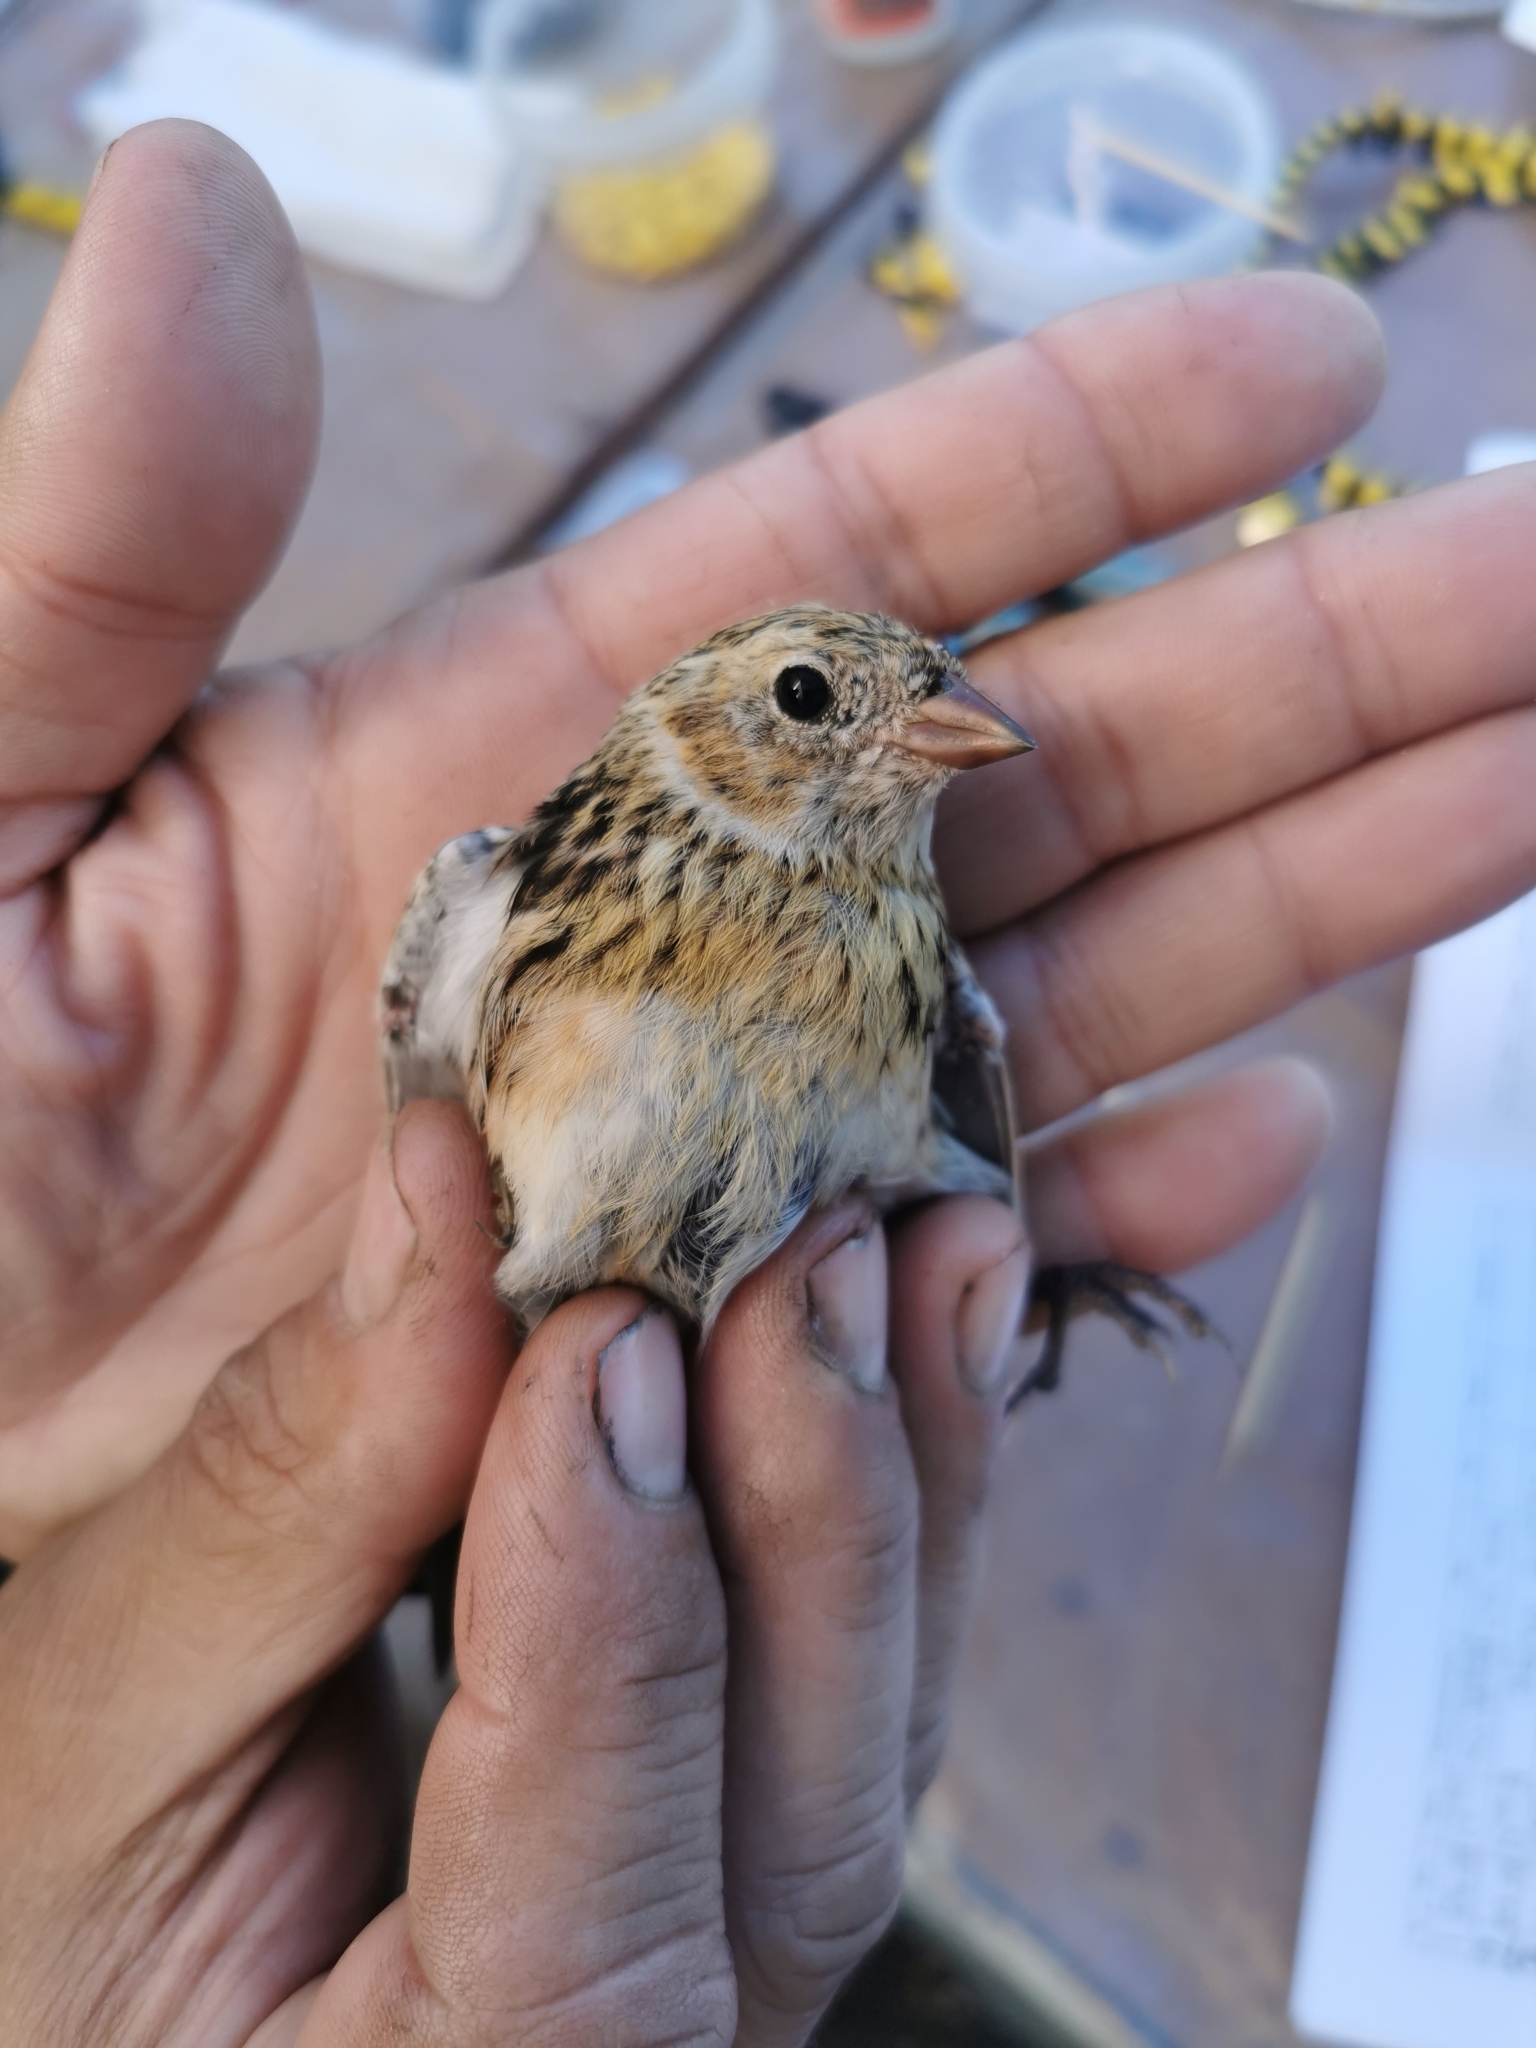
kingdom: Animalia
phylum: Chordata
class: Aves
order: Passeriformes
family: Calcariidae
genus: Calcarius
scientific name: Calcarius lapponicus
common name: Lapland longspur
